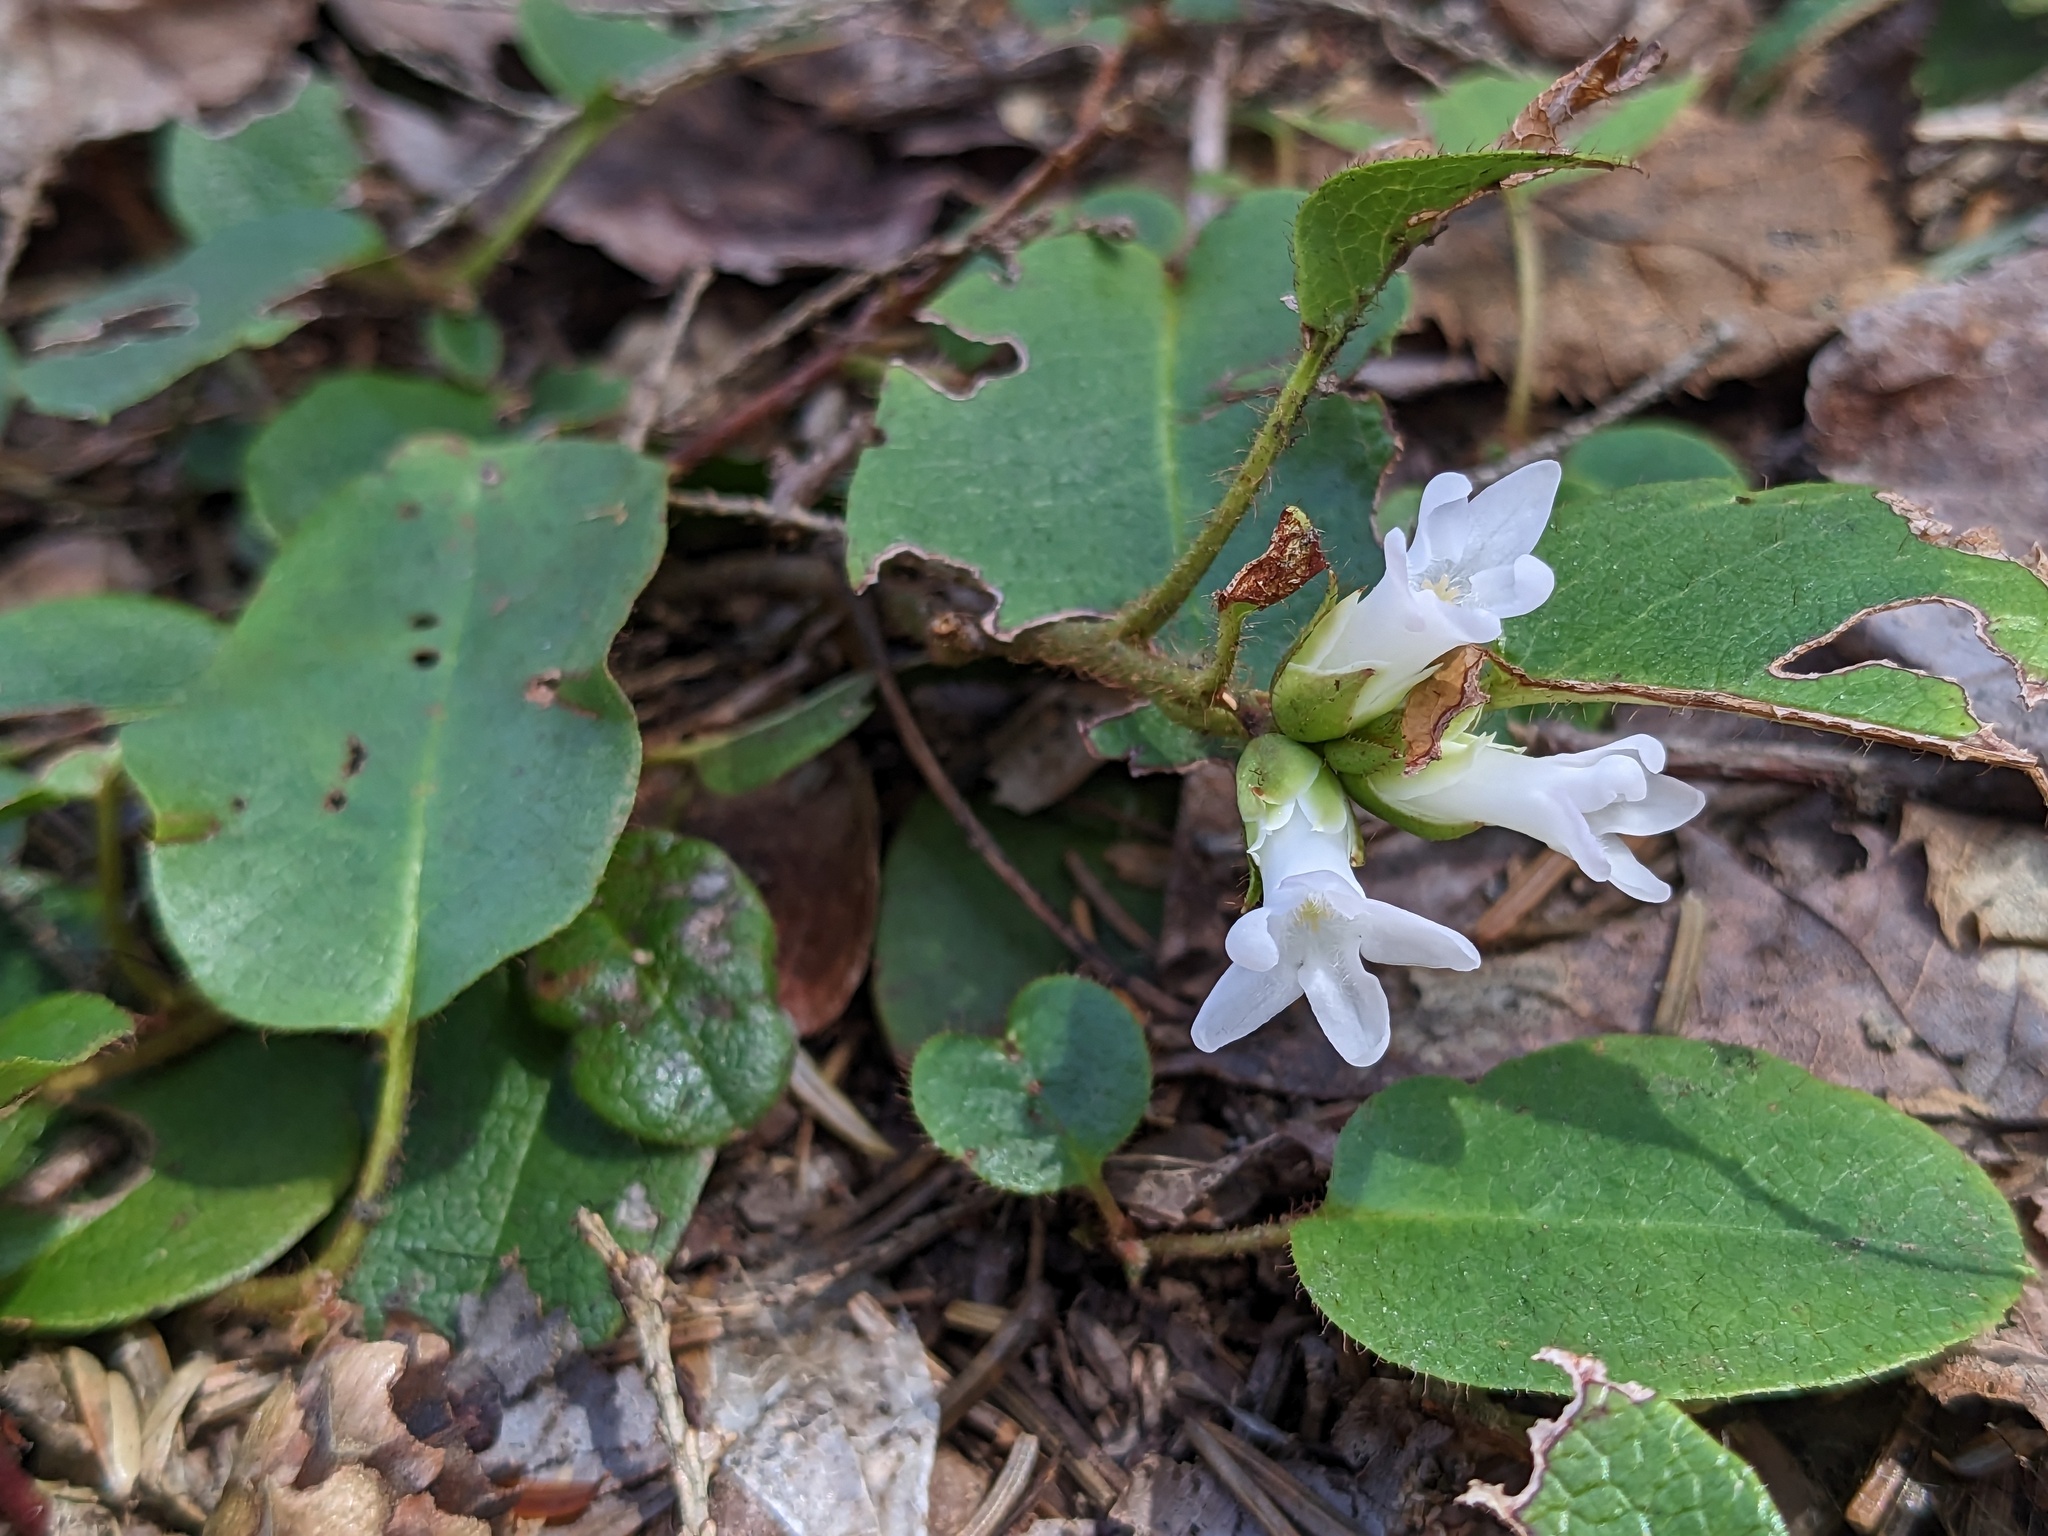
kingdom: Plantae
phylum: Tracheophyta
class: Magnoliopsida
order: Ericales
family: Ericaceae
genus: Epigaea
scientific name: Epigaea repens
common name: Gravelroot
